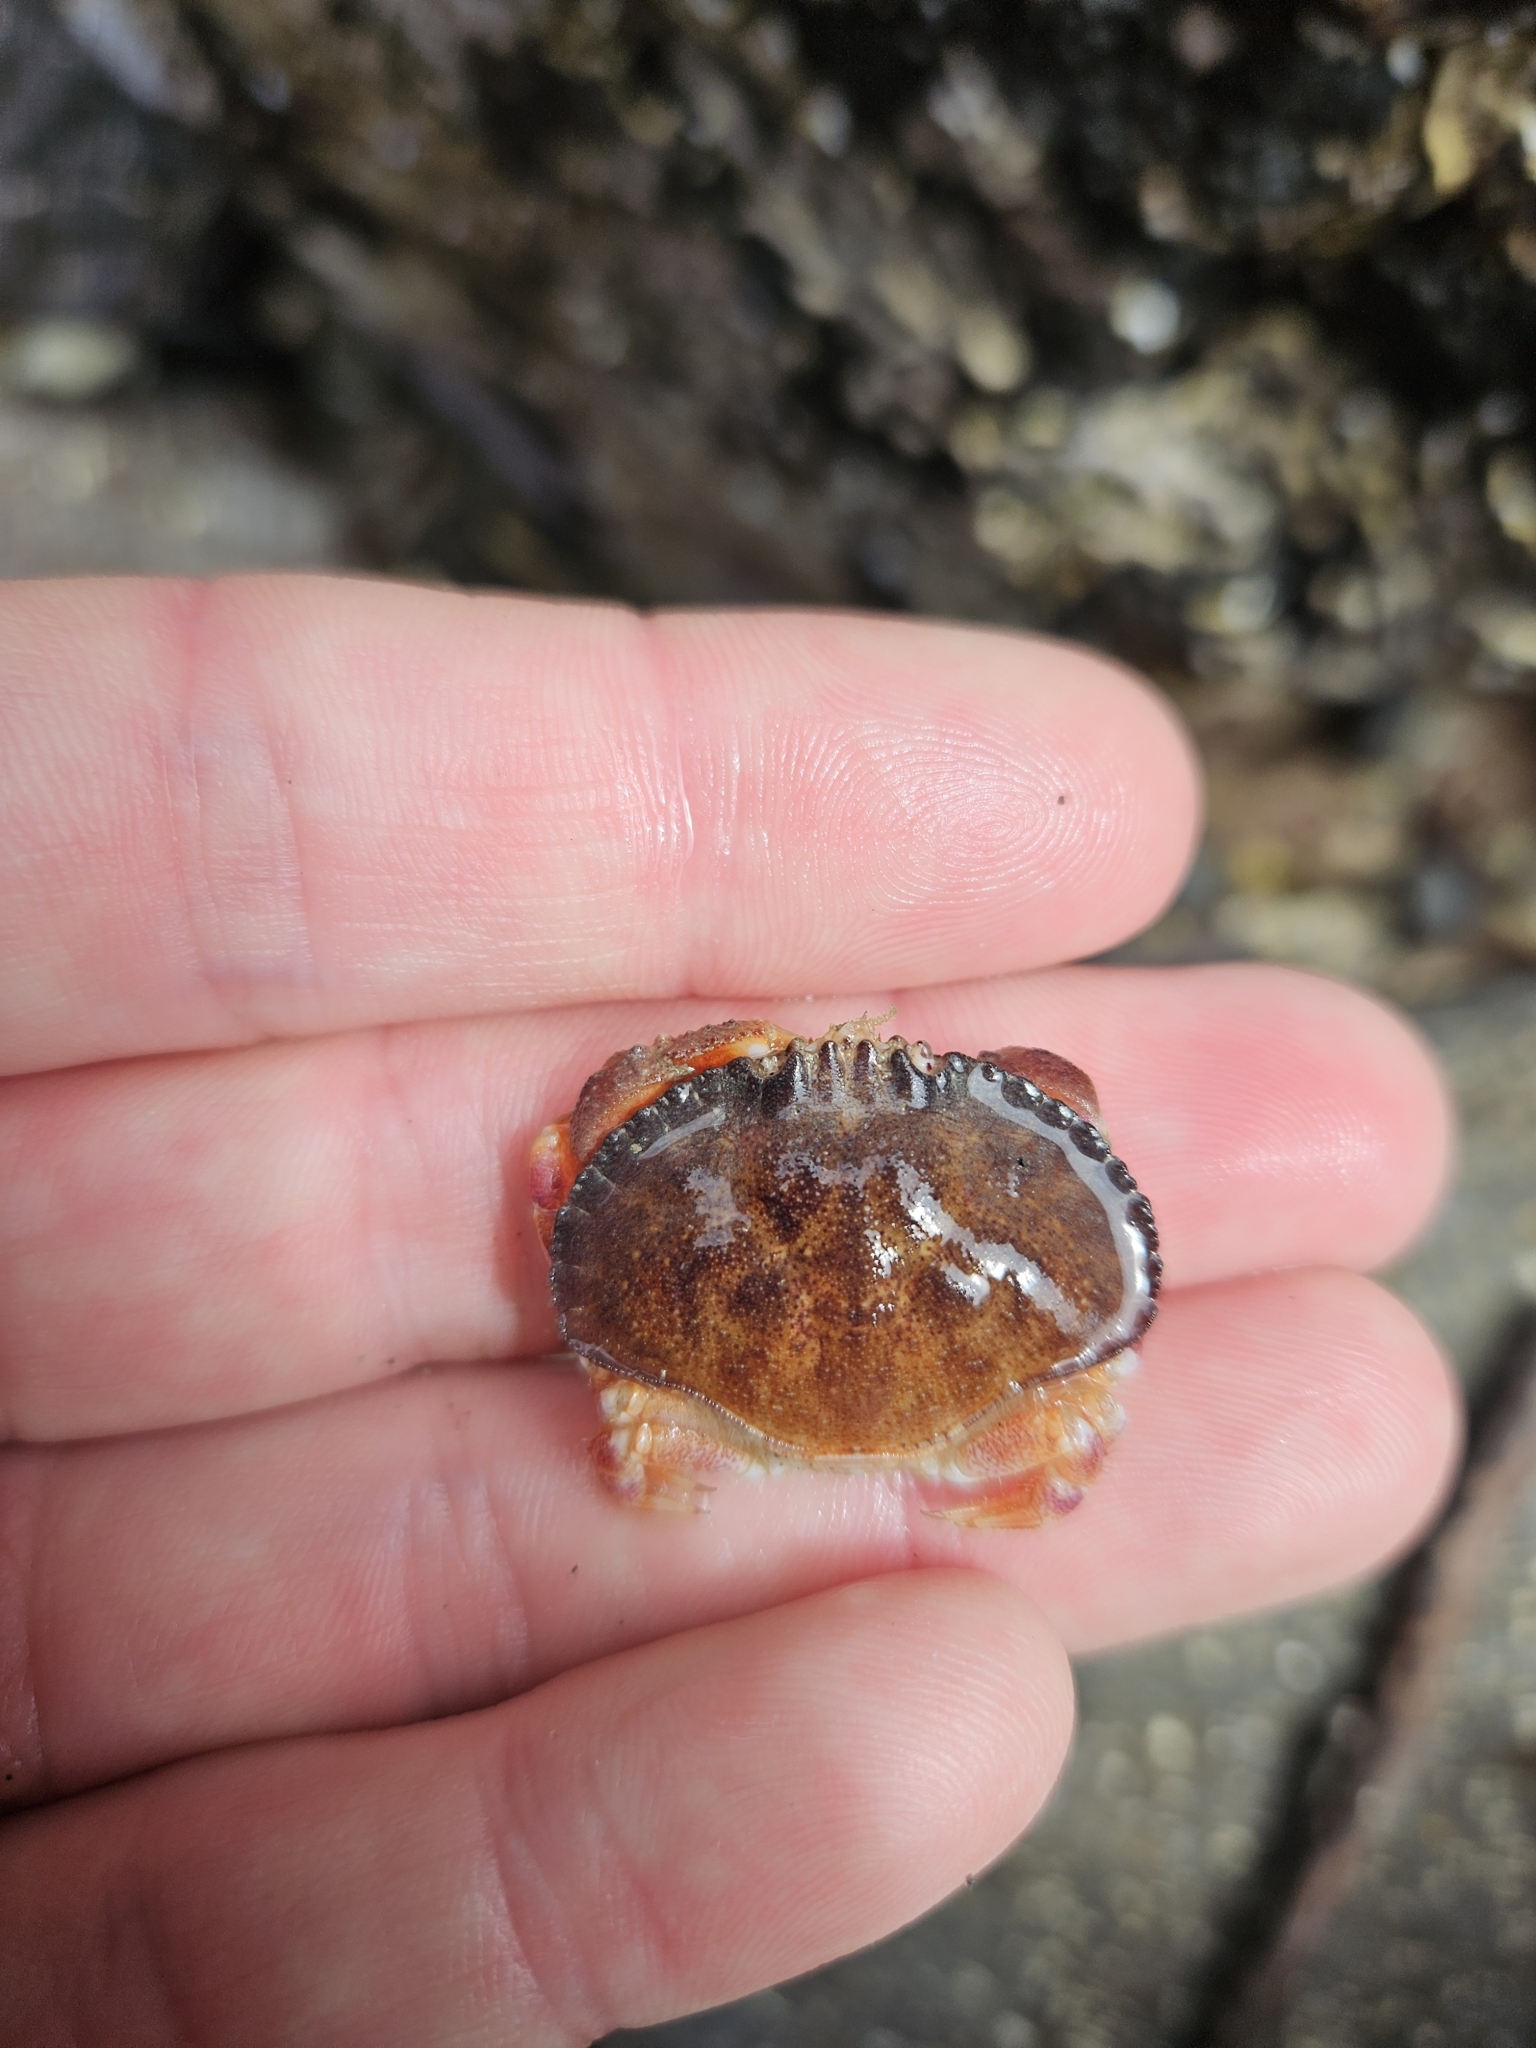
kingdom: Animalia
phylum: Arthropoda
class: Malacostraca
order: Decapoda
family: Cancridae
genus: Metacarcinus
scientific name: Metacarcinus novaezelandiae
